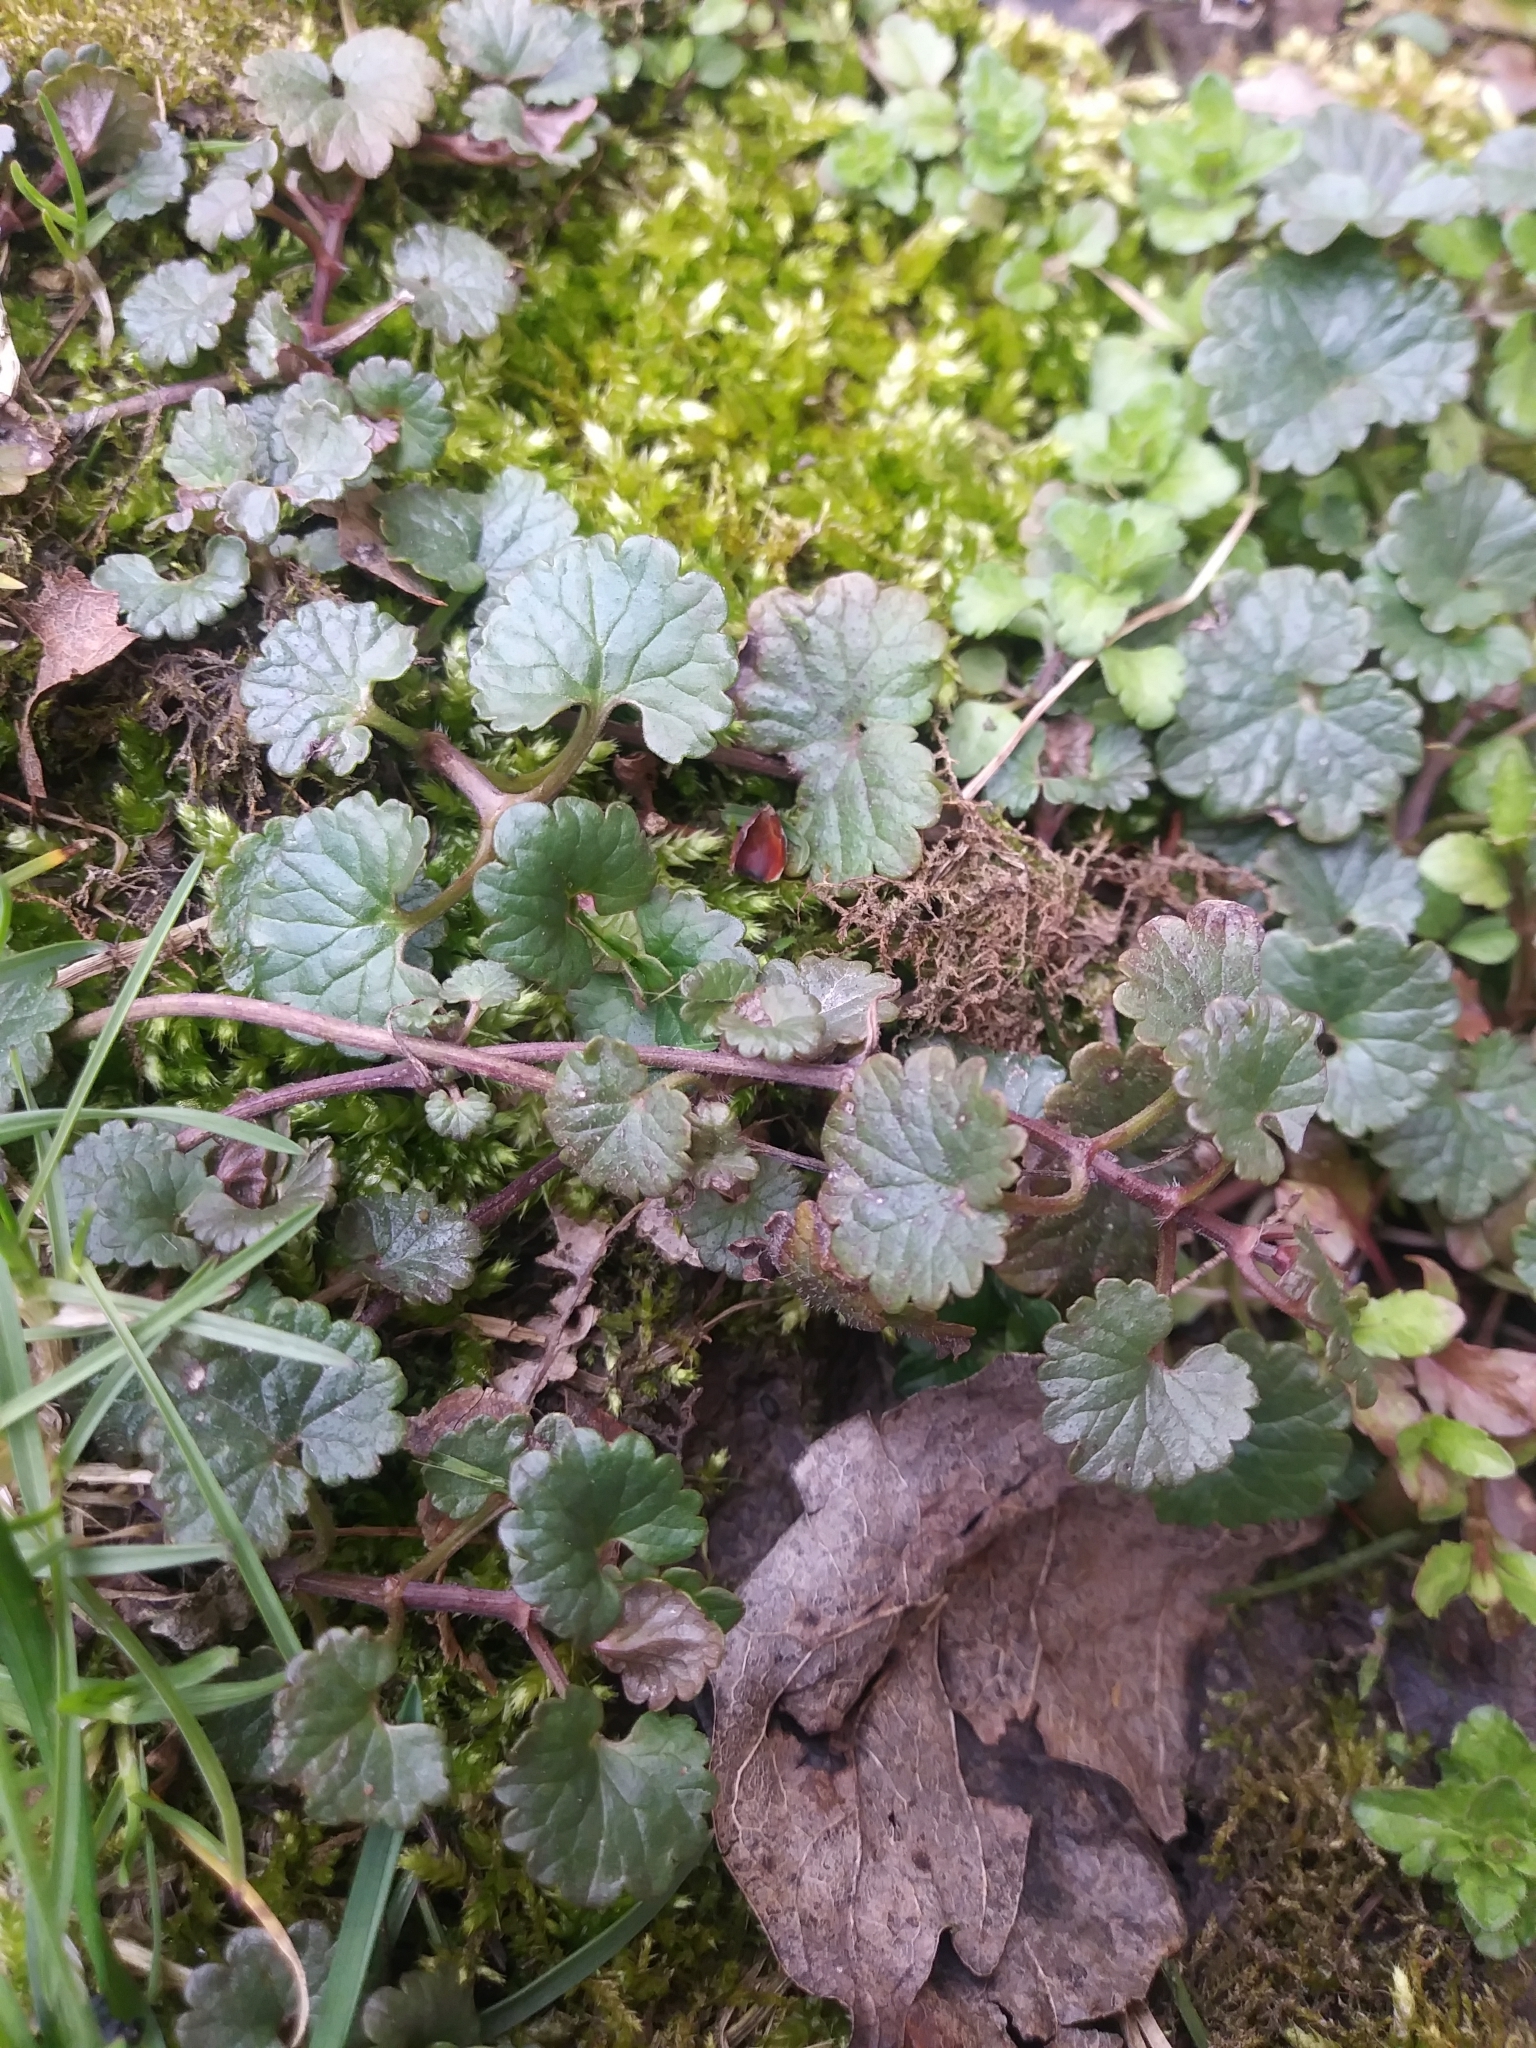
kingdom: Plantae
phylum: Tracheophyta
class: Magnoliopsida
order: Lamiales
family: Lamiaceae
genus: Glechoma
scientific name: Glechoma hederacea
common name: Ground ivy
